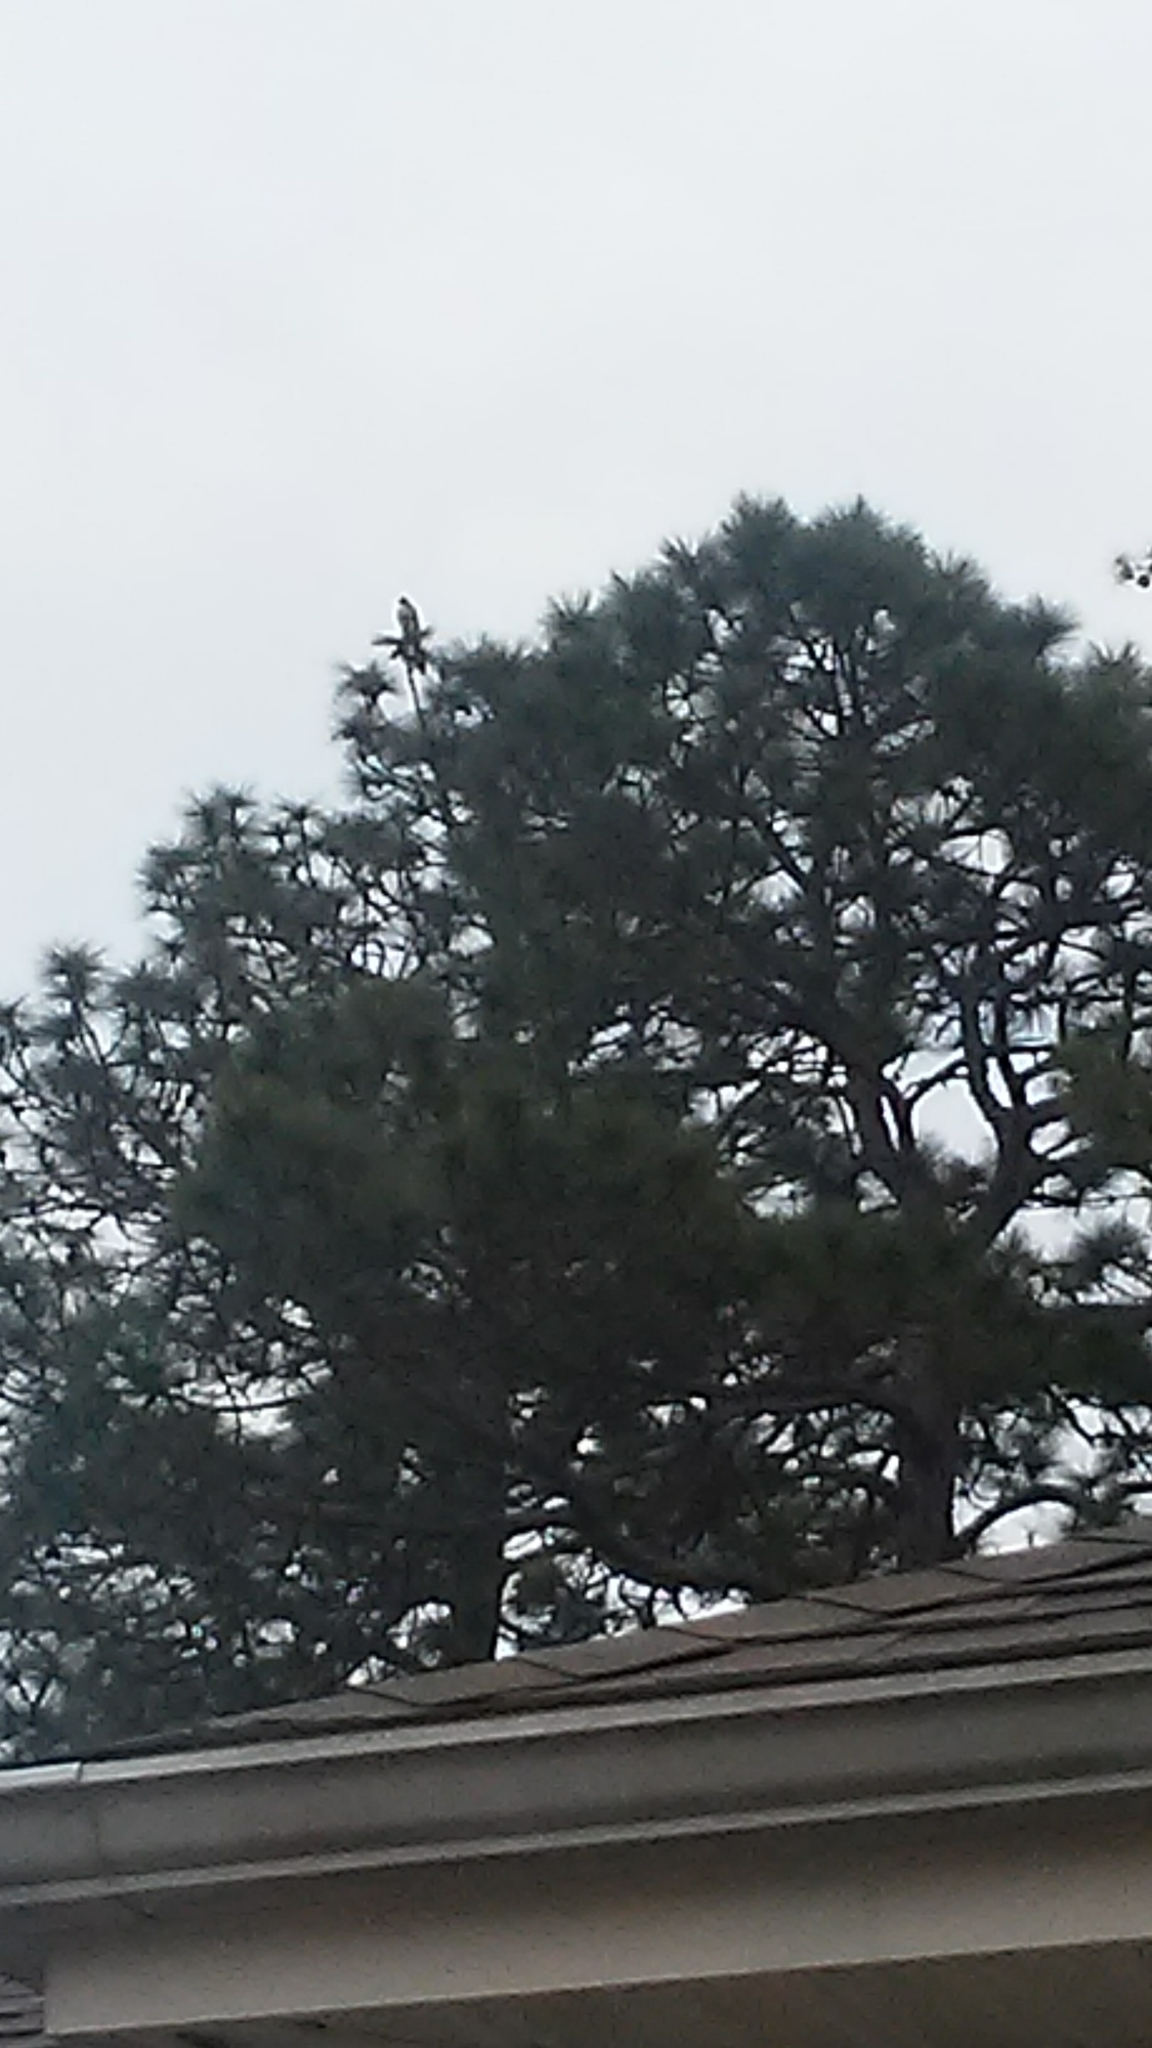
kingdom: Animalia
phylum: Chordata
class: Aves
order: Accipitriformes
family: Accipitridae
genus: Buteo
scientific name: Buteo jamaicensis
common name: Red-tailed hawk
